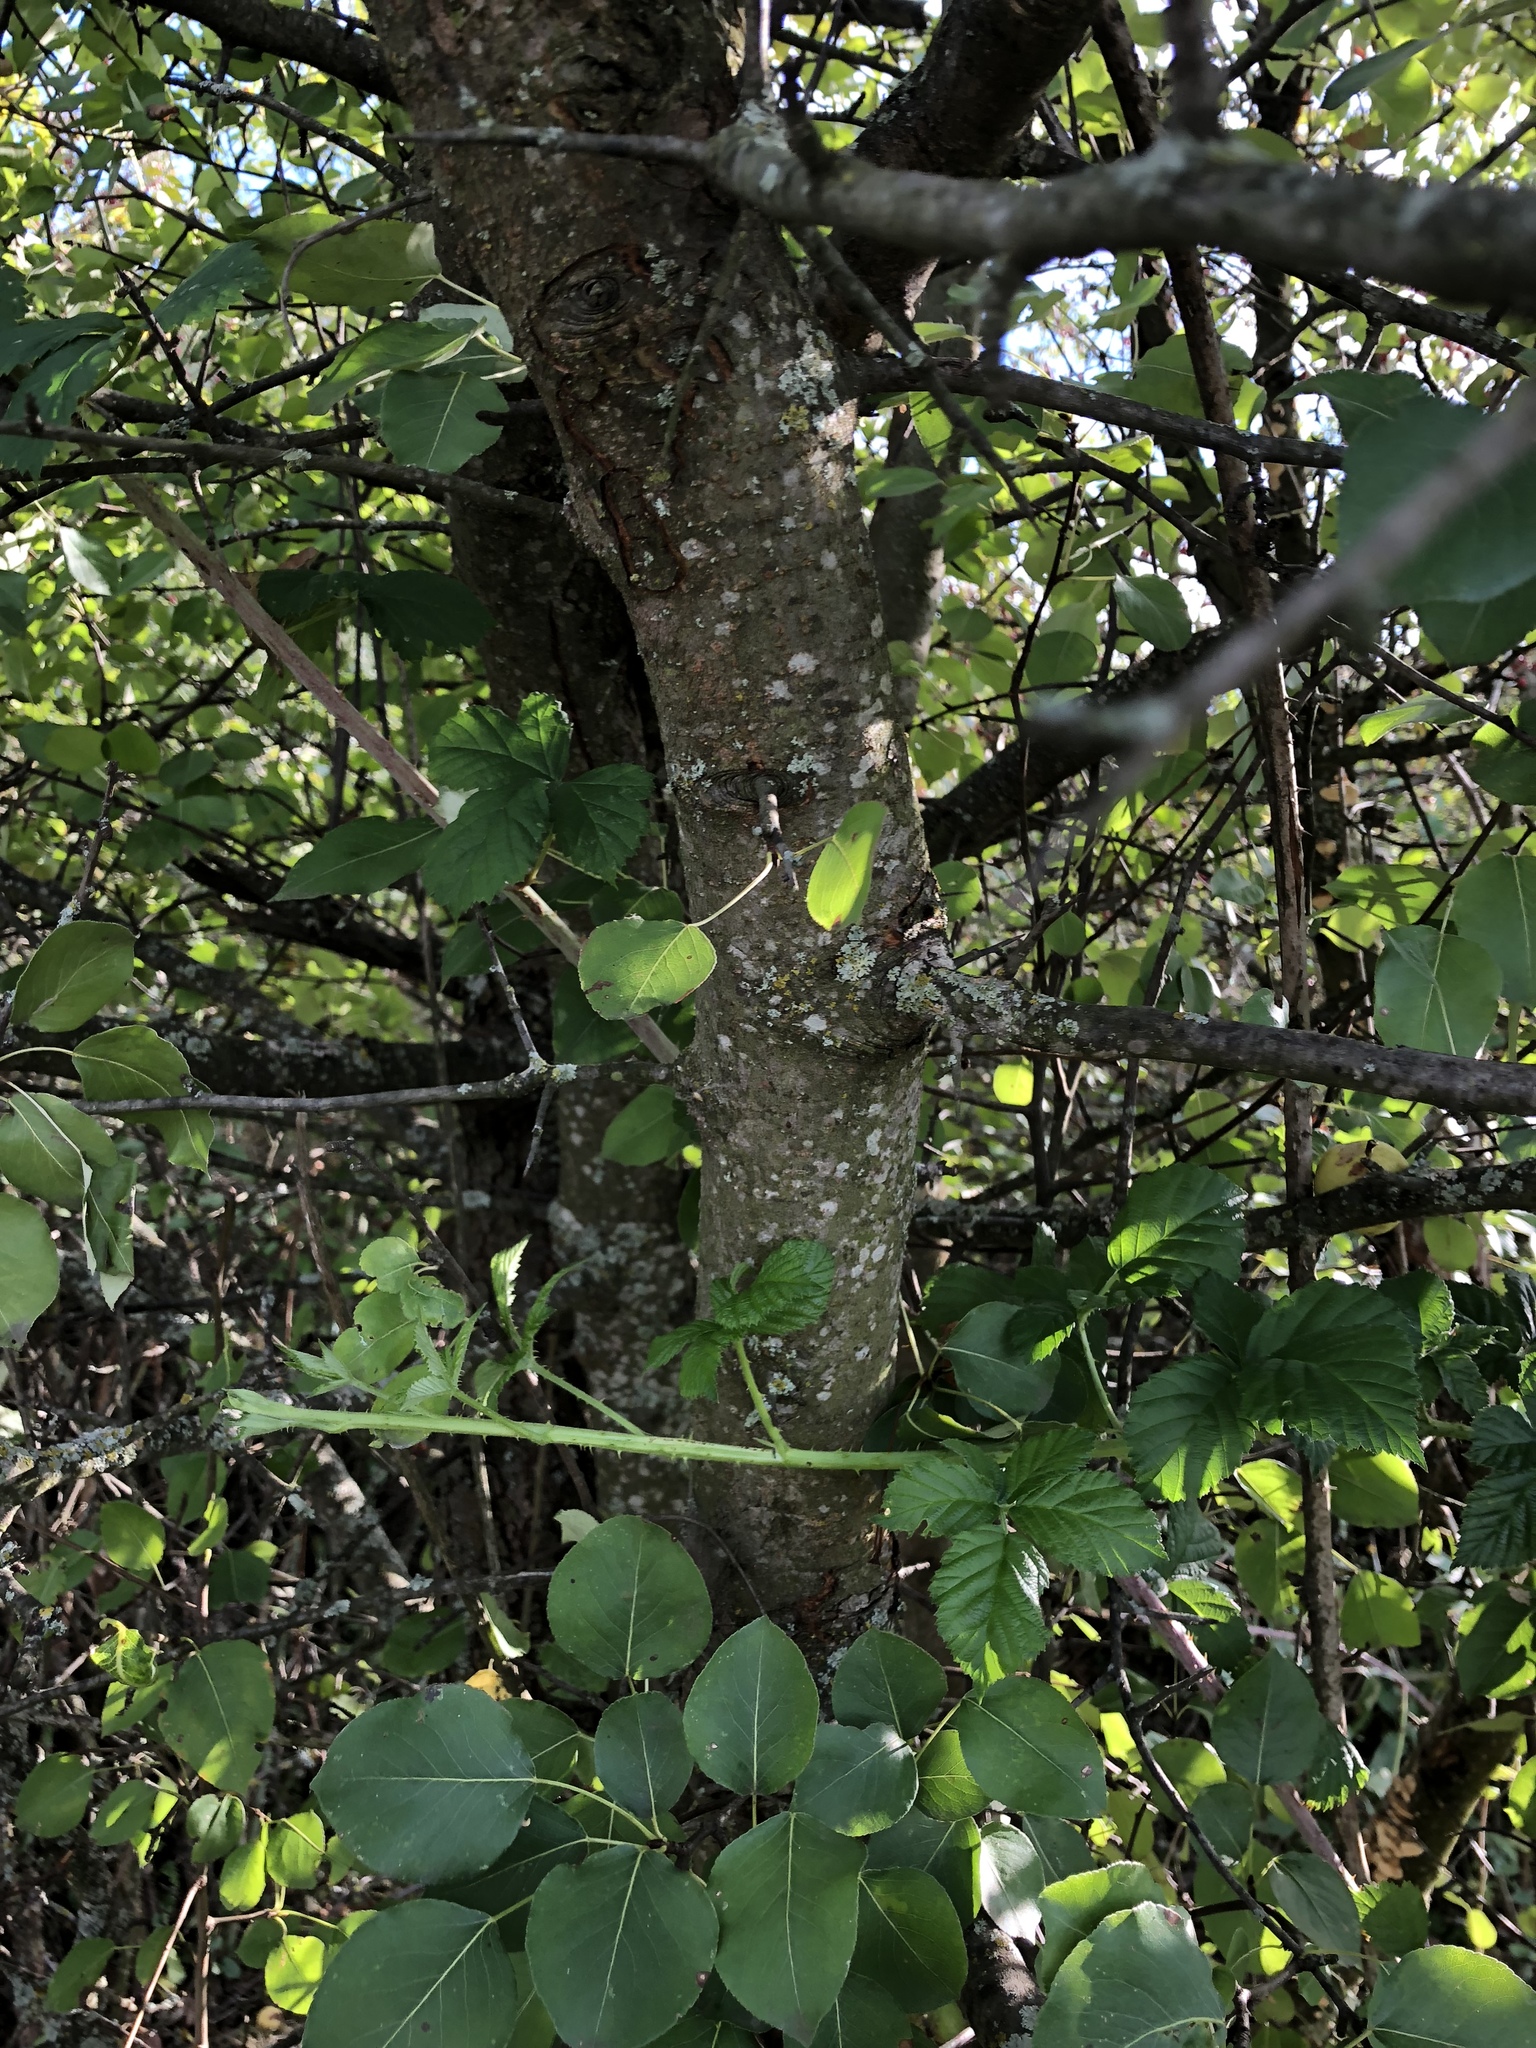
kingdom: Plantae
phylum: Tracheophyta
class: Magnoliopsida
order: Rosales
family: Rosaceae
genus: Pyrus
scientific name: Pyrus communis
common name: Pear
